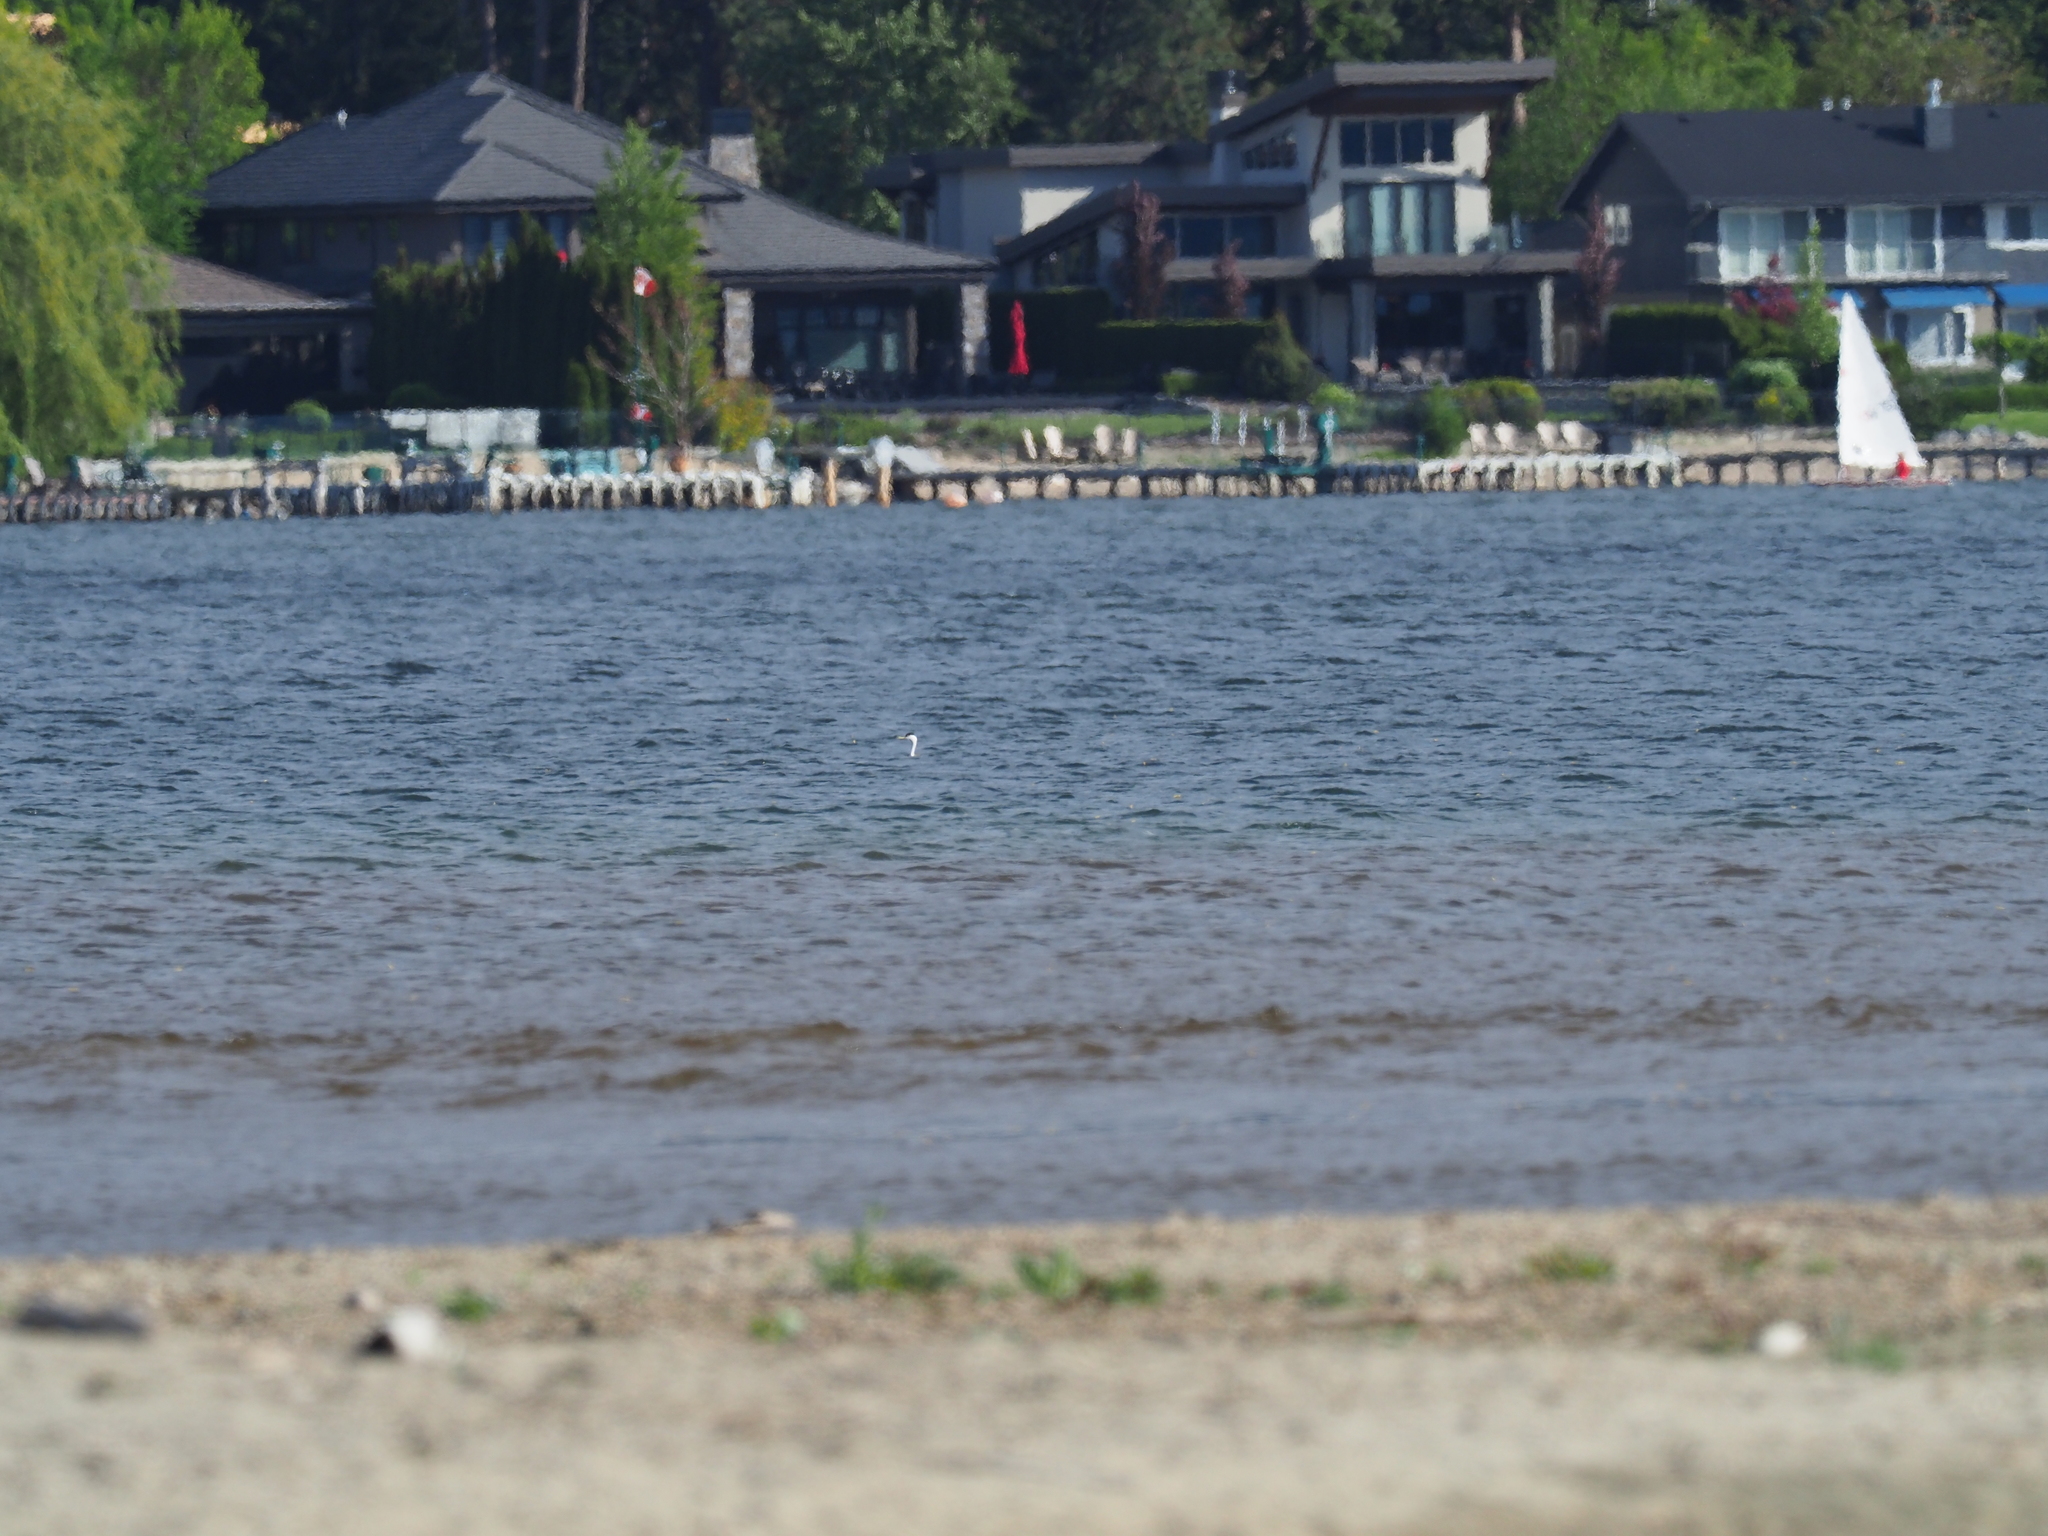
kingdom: Animalia
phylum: Chordata
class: Aves
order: Podicipediformes
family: Podicipedidae
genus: Aechmophorus
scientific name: Aechmophorus occidentalis
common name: Western grebe
